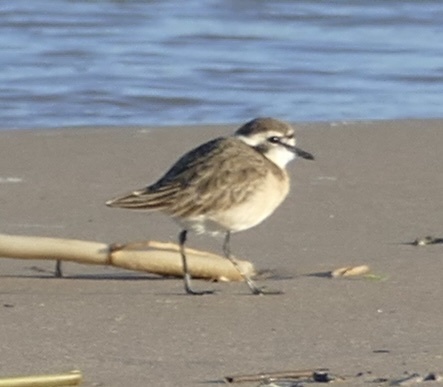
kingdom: Animalia
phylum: Chordata
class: Aves
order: Charadriiformes
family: Charadriidae
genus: Anarhynchus
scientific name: Anarhynchus
